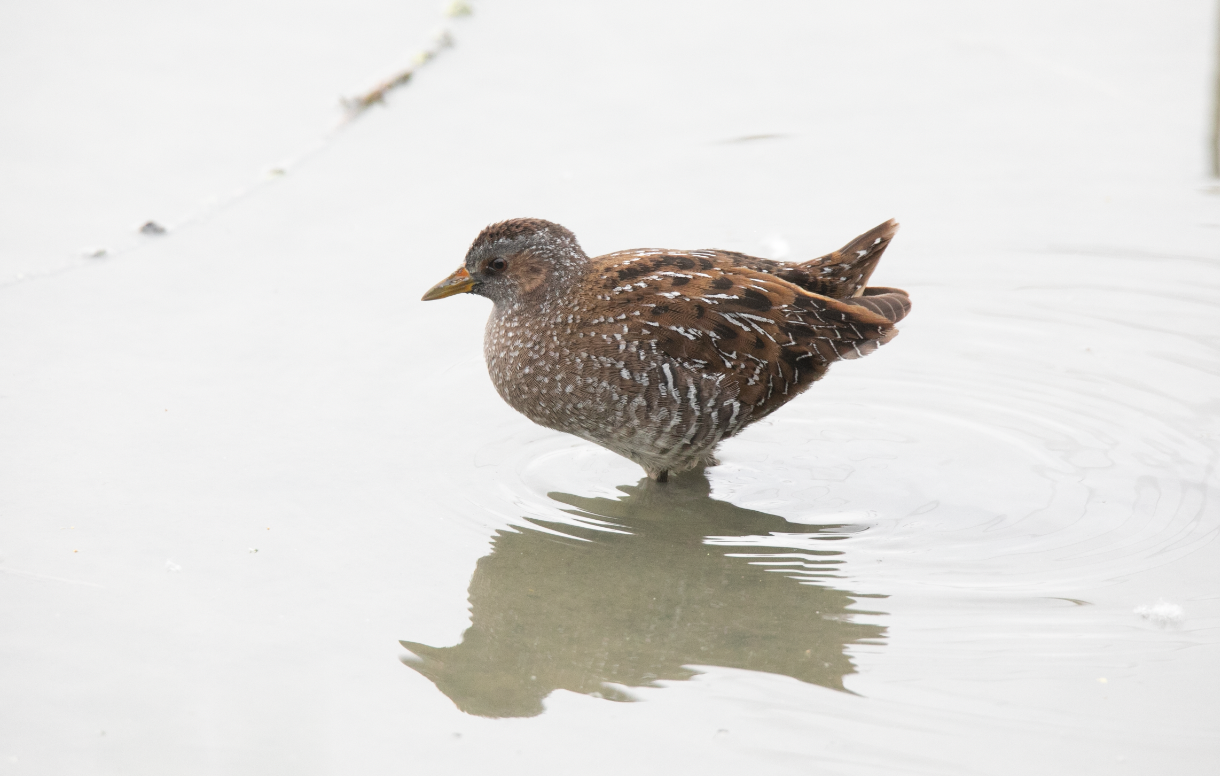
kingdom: Animalia
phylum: Chordata
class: Aves
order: Gruiformes
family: Rallidae
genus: Porzana
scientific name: Porzana porzana
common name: Spotted crake
